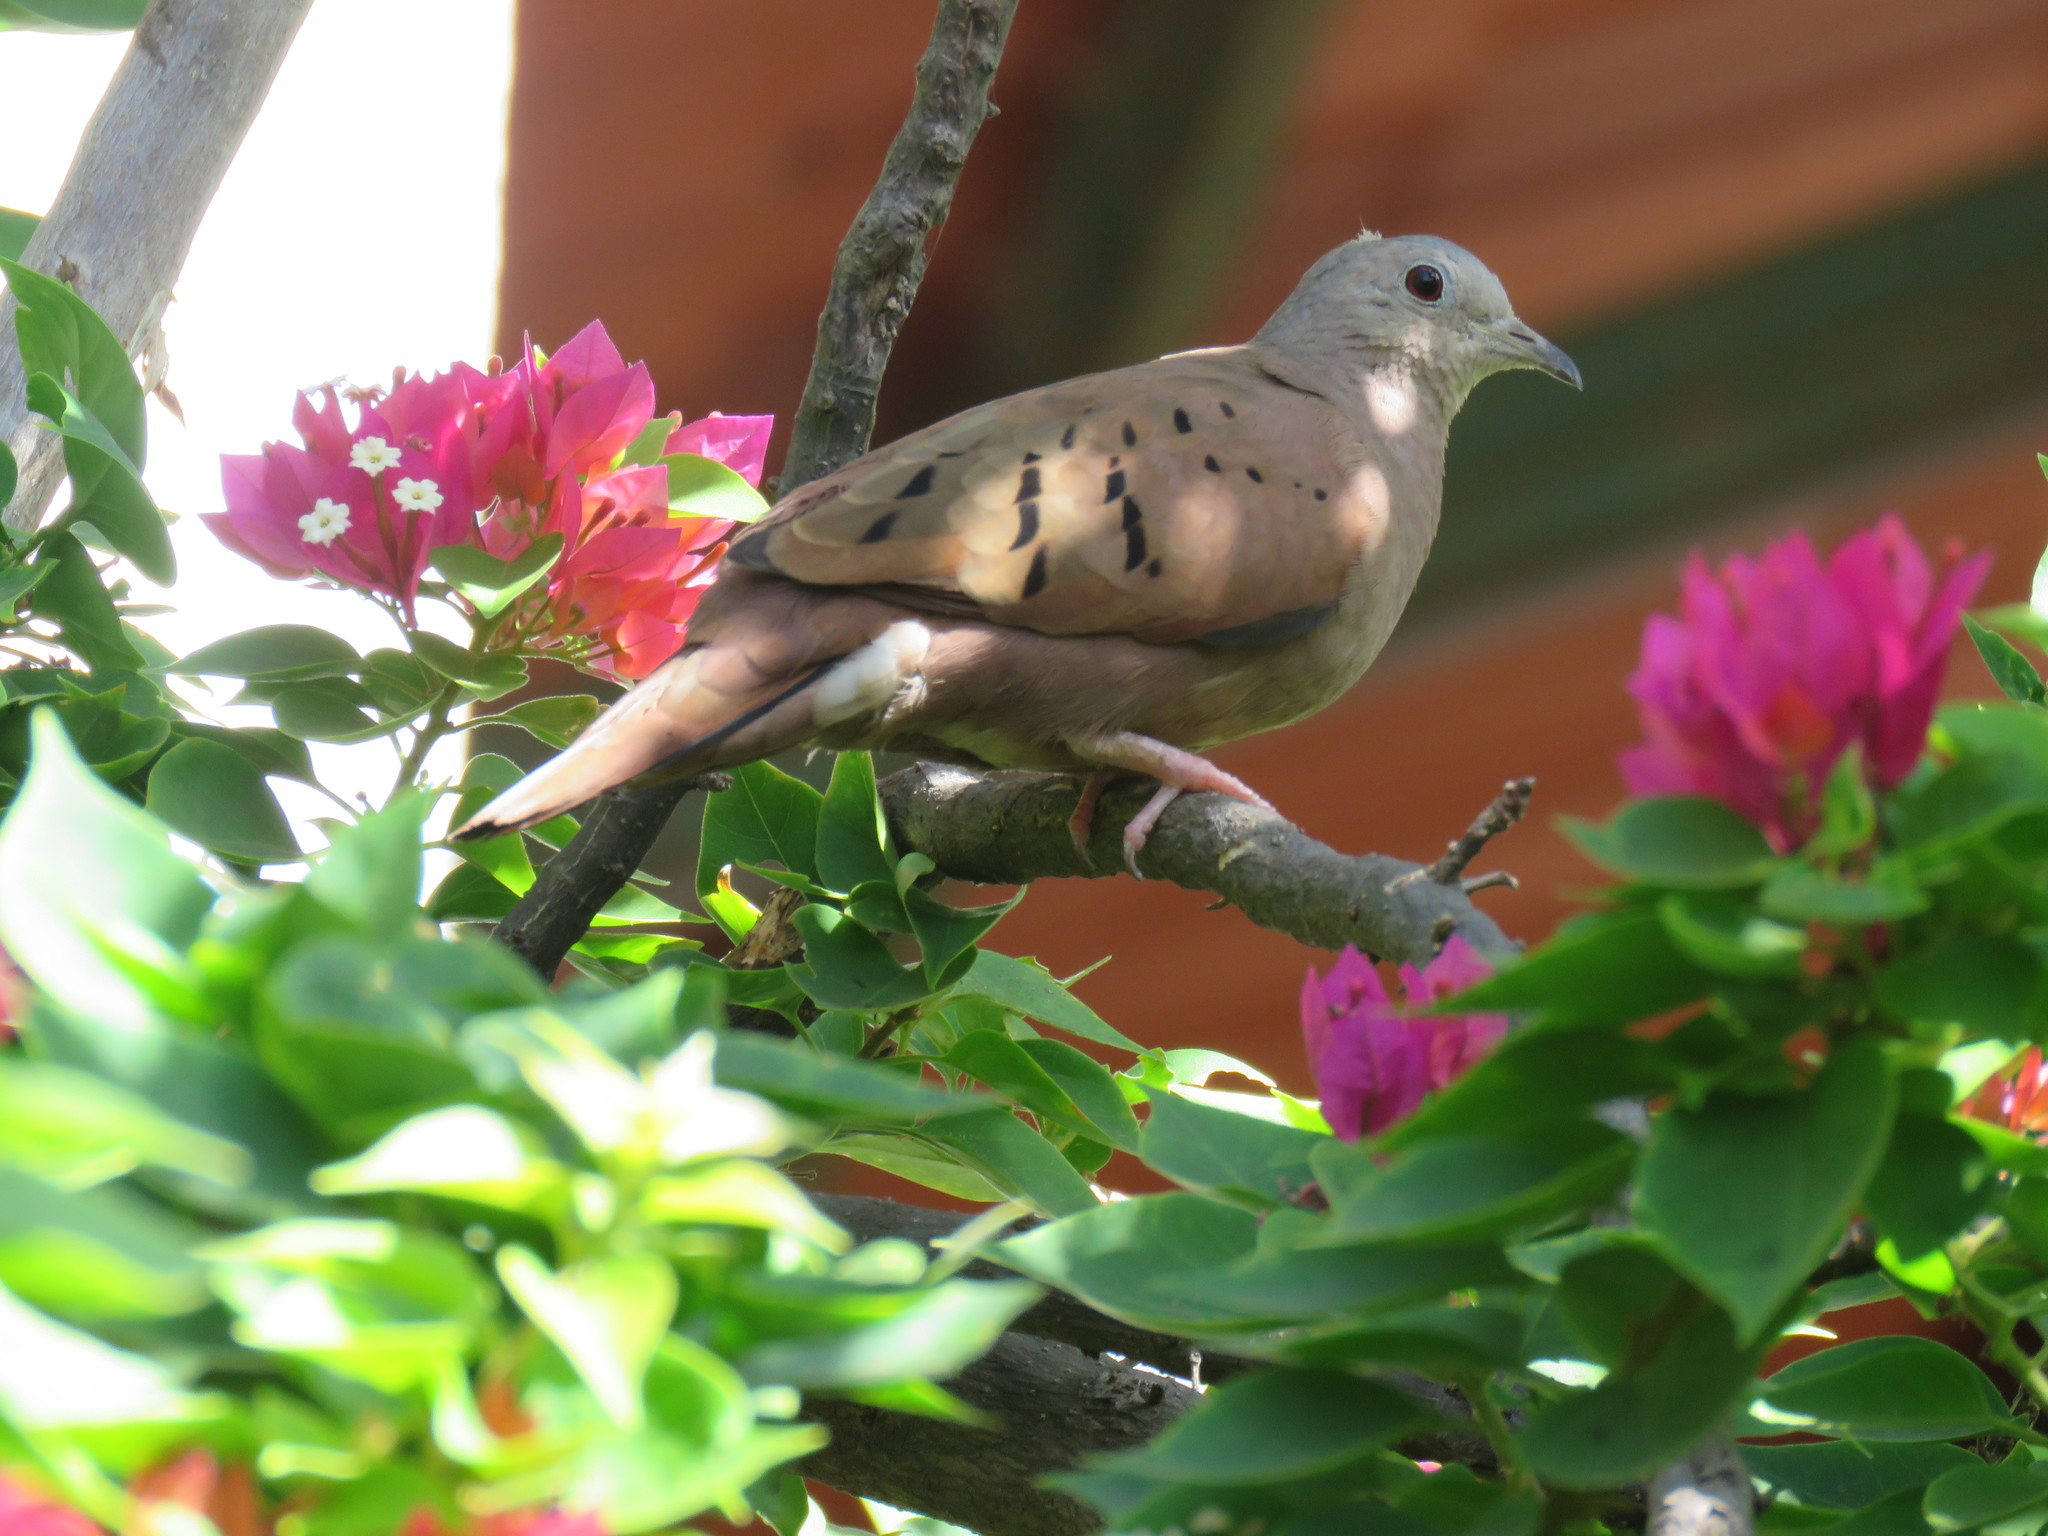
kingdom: Animalia
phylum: Chordata
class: Aves
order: Columbiformes
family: Columbidae
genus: Columbina
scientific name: Columbina talpacoti
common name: Ruddy ground dove
